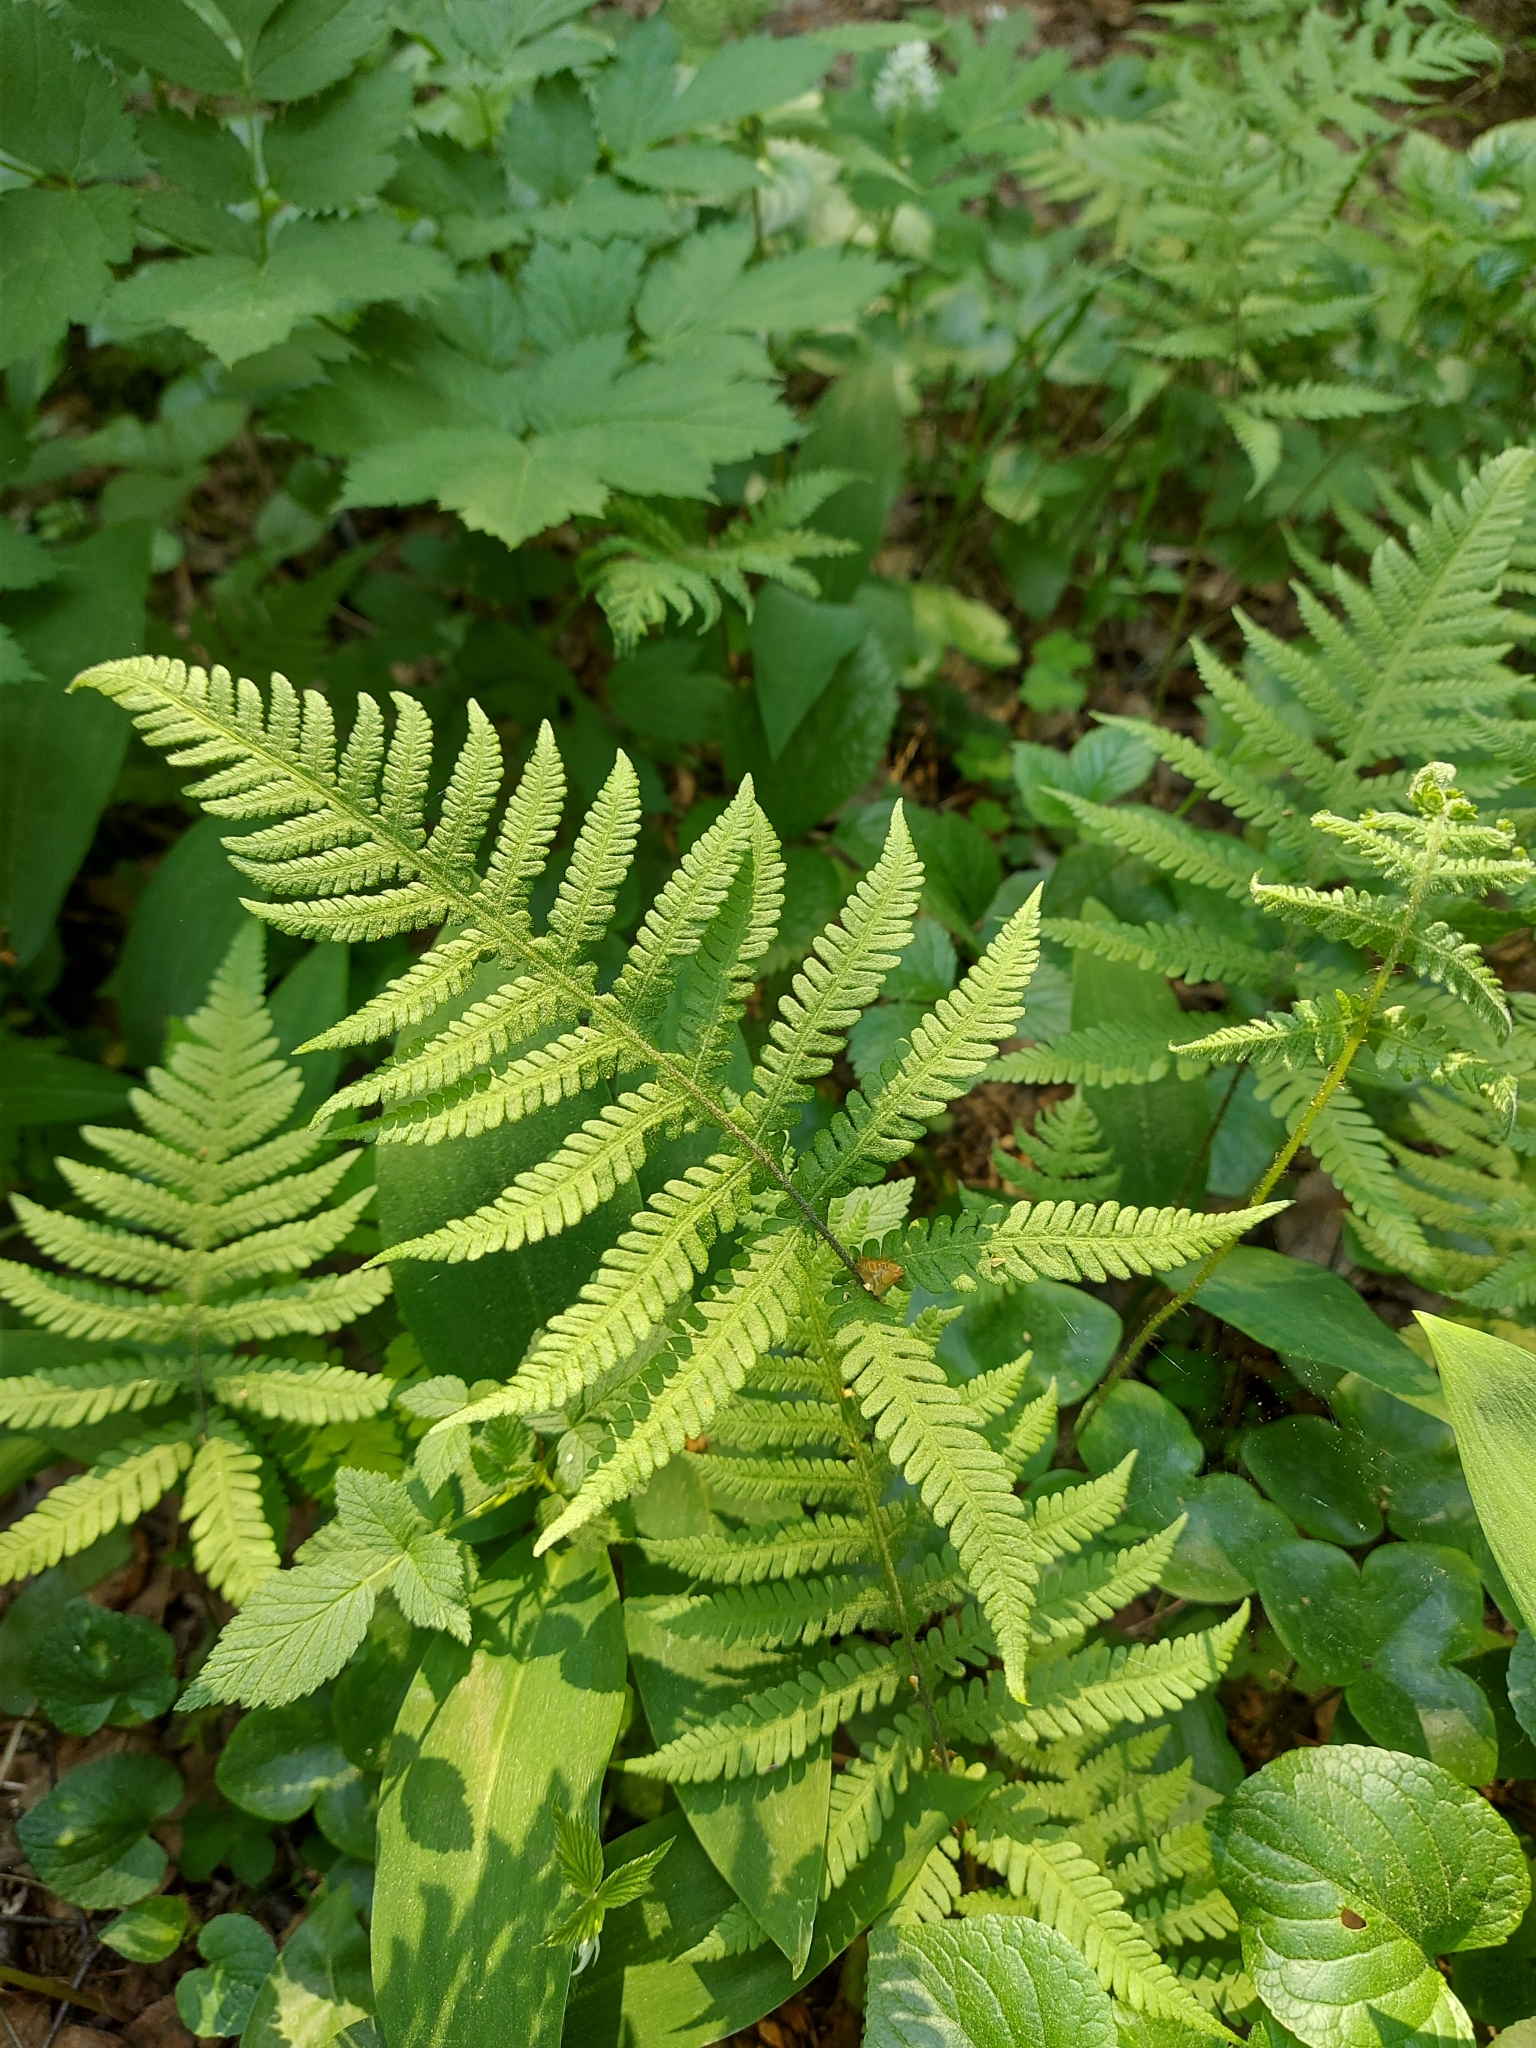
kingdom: Plantae
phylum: Tracheophyta
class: Polypodiopsida
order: Polypodiales
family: Thelypteridaceae
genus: Phegopteris
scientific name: Phegopteris connectilis
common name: Beech fern
